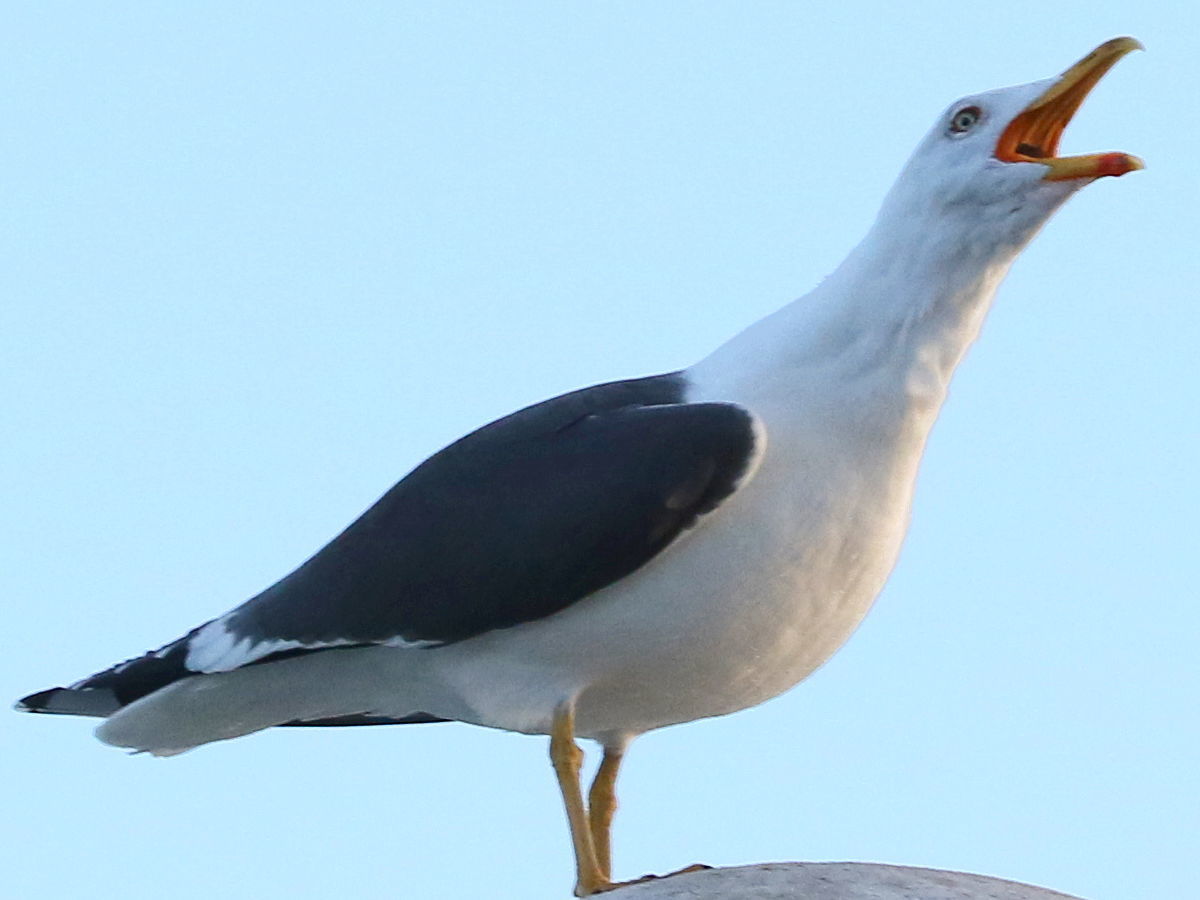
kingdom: Animalia
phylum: Chordata
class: Aves
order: Charadriiformes
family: Laridae
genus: Larus
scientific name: Larus fuscus
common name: Lesser black-backed gull
